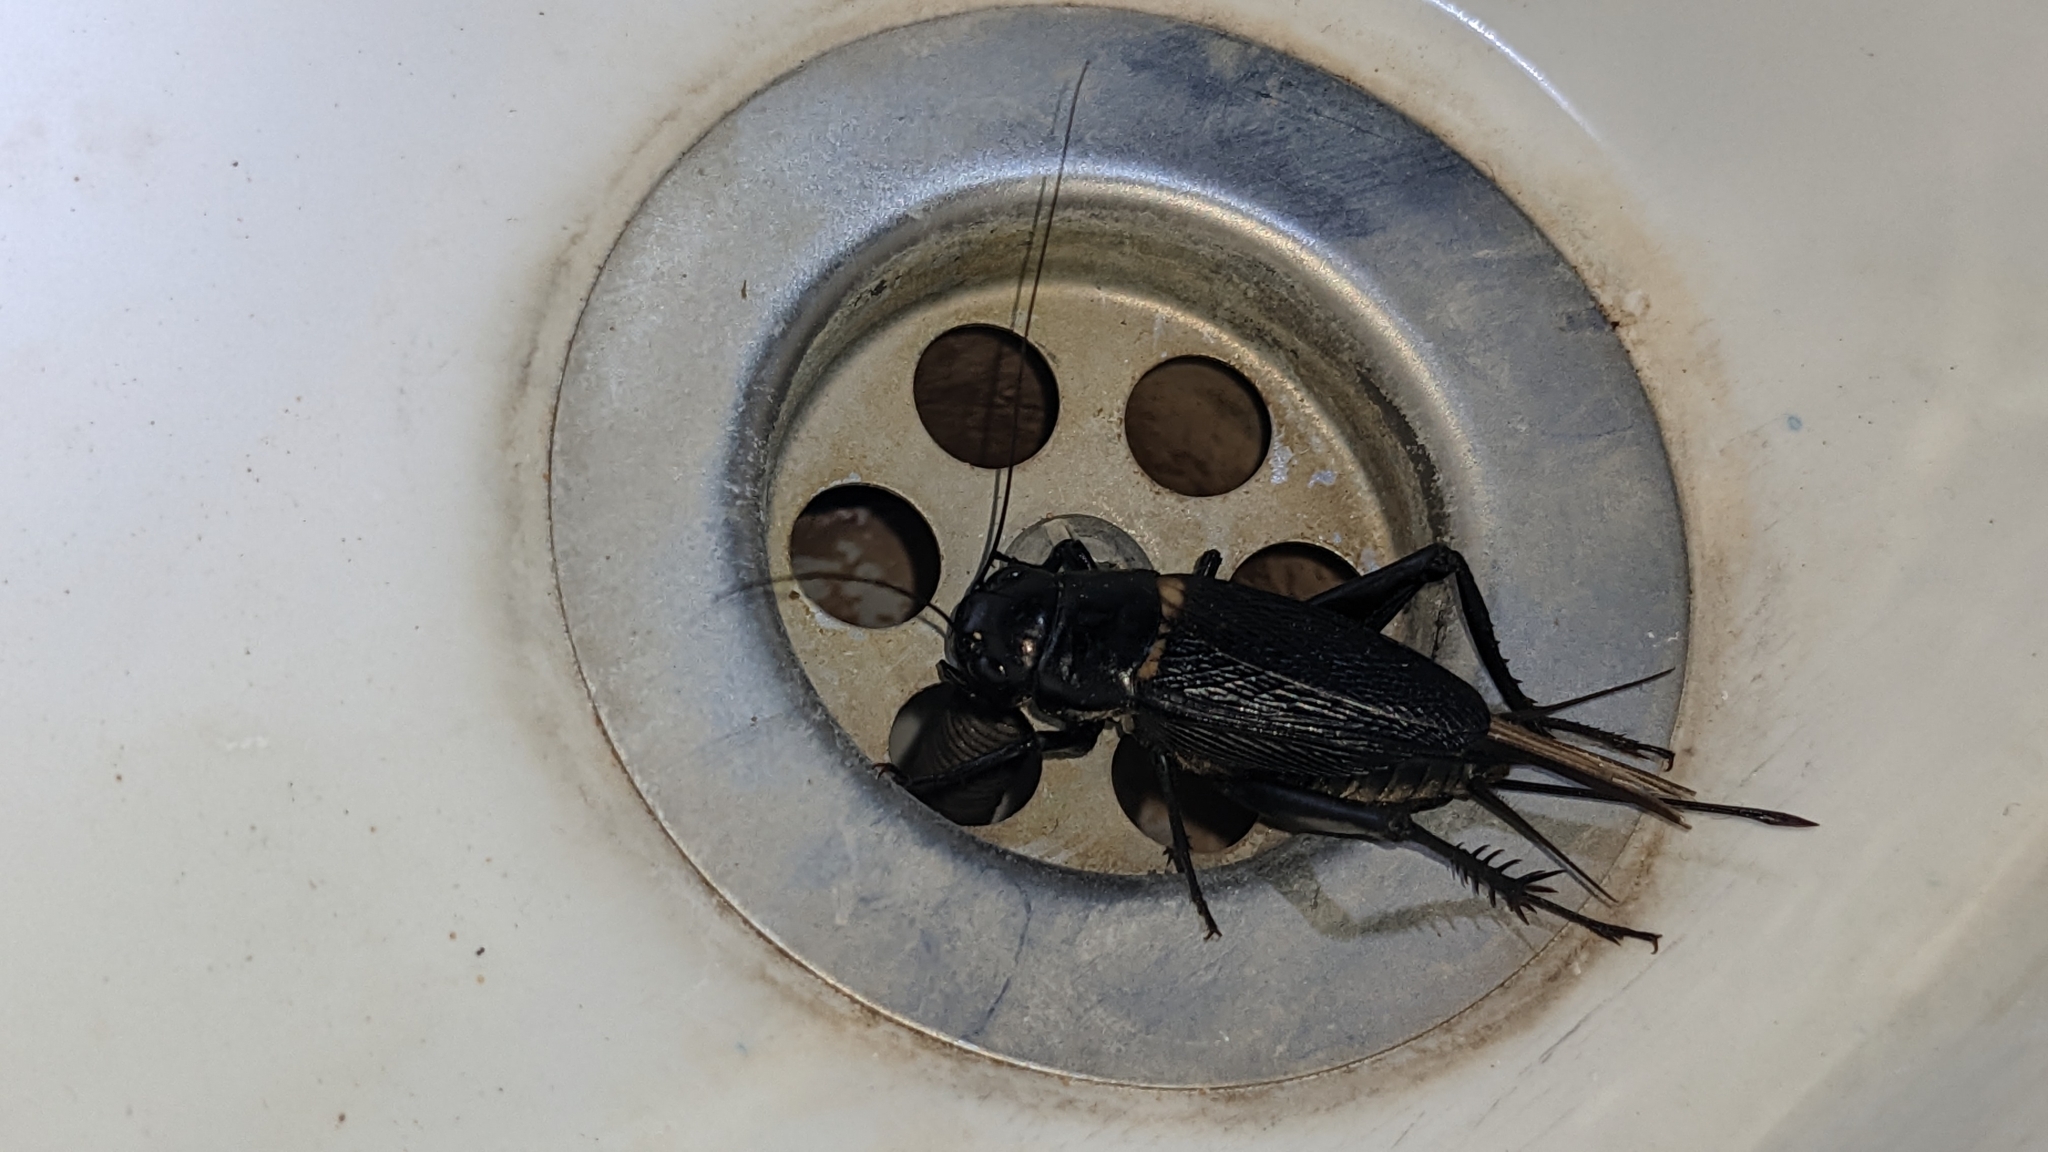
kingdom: Animalia
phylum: Arthropoda
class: Insecta
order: Orthoptera
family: Gryllidae
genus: Gryllus
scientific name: Gryllus bimaculatus
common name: Two-spotted cricket
